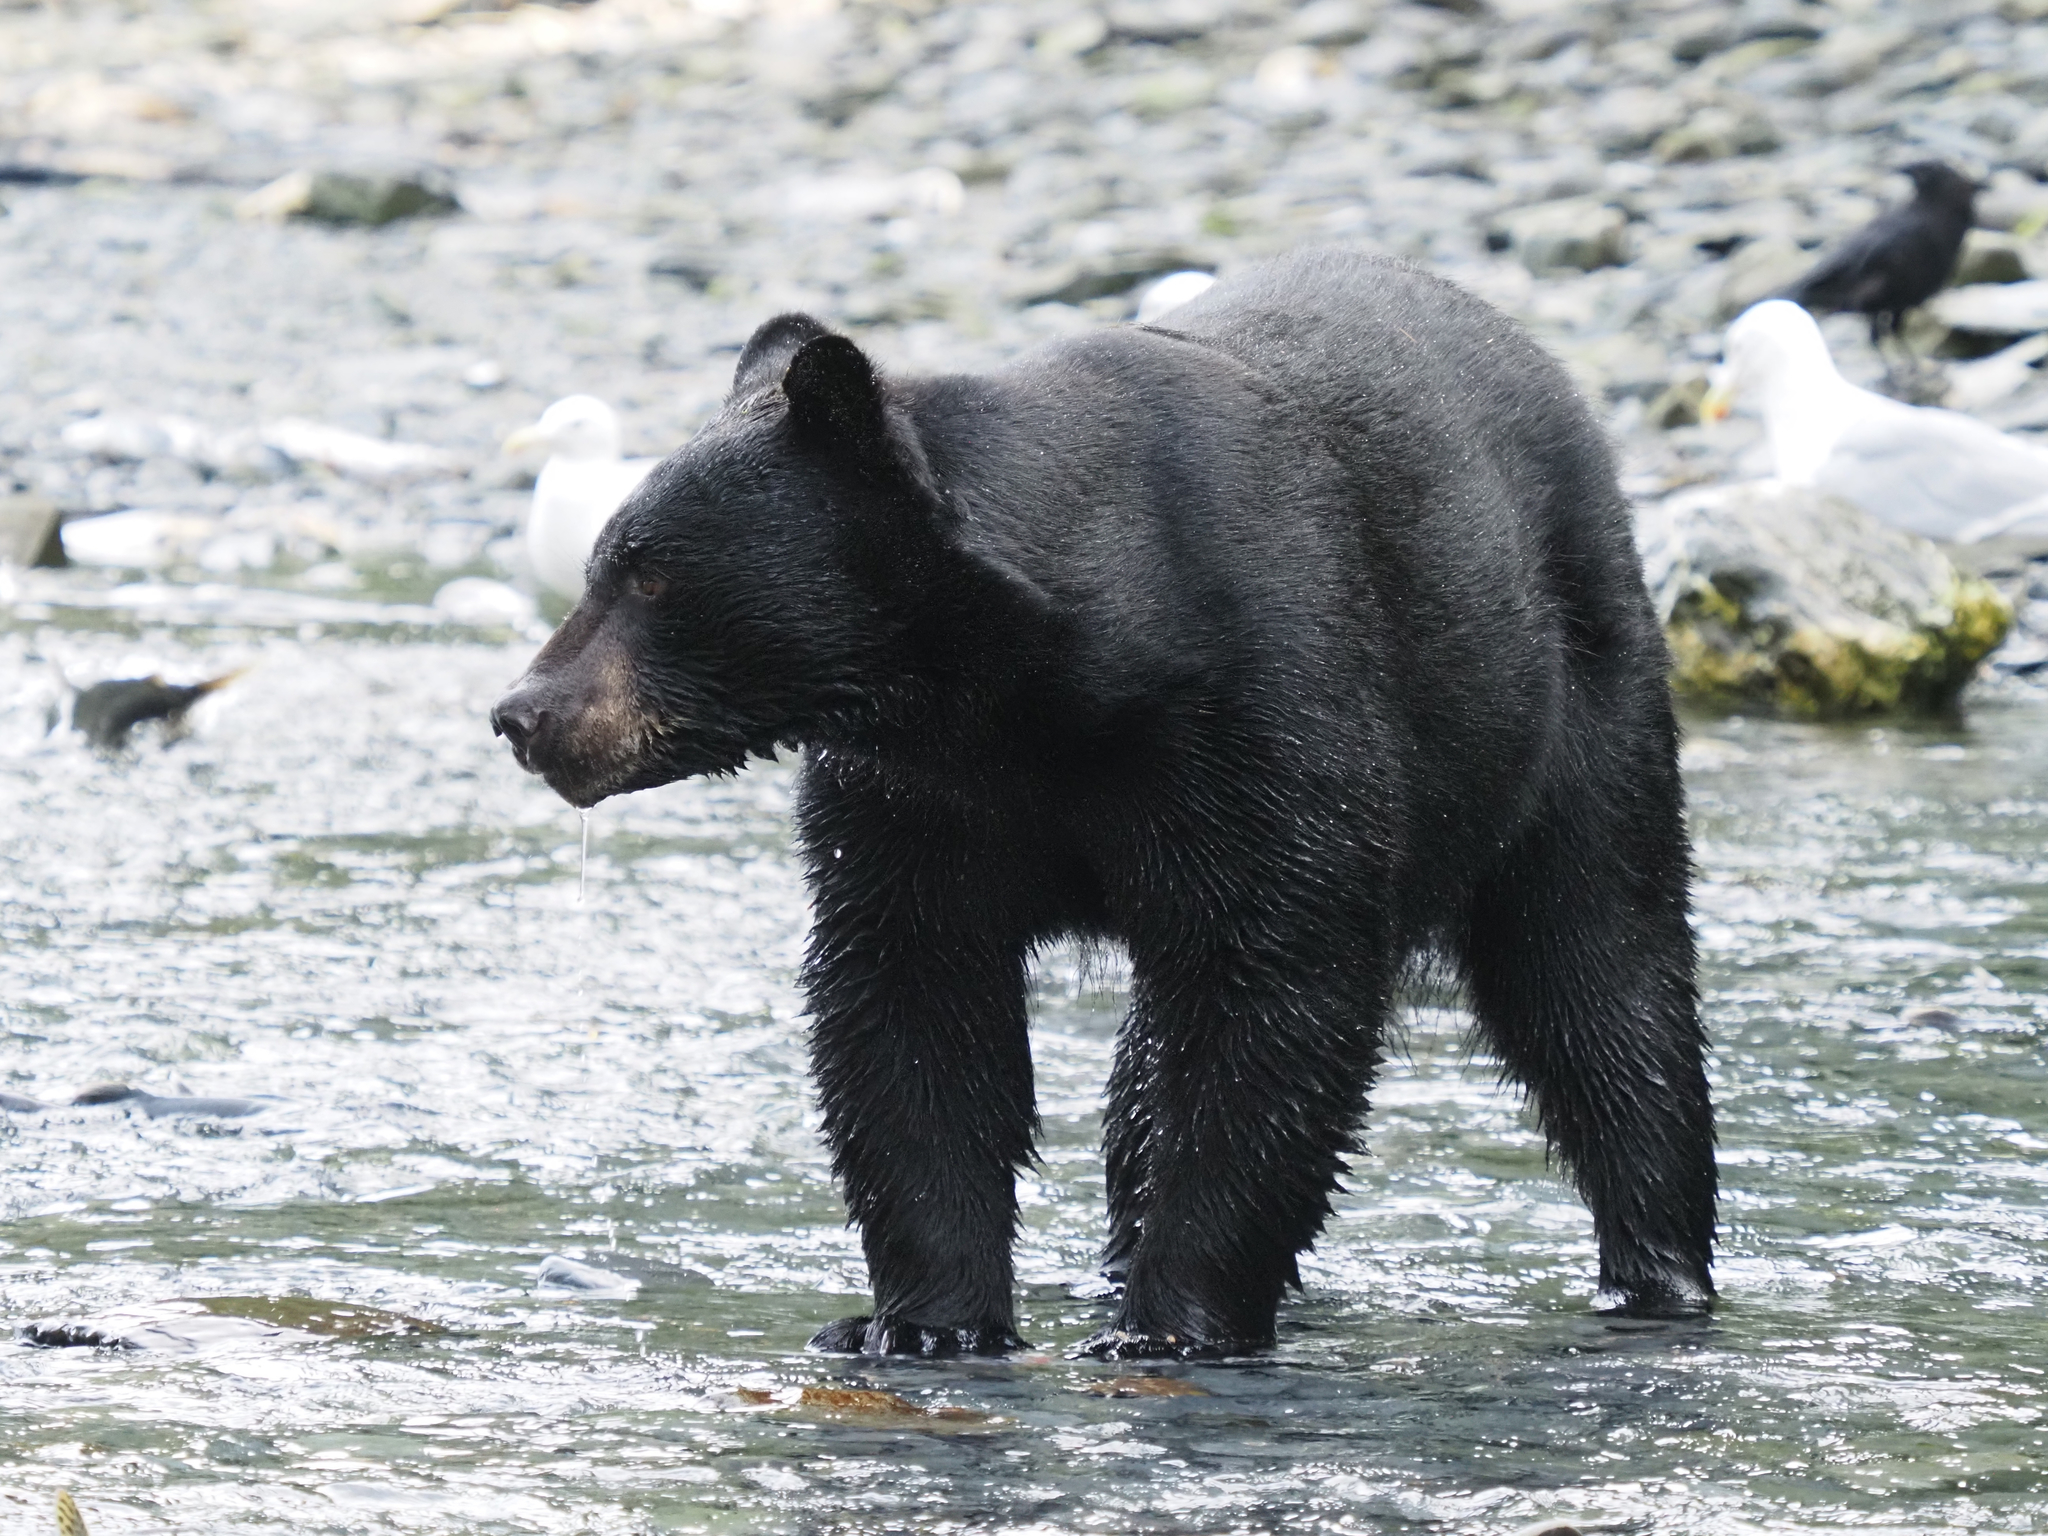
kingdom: Animalia
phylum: Chordata
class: Mammalia
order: Carnivora
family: Ursidae
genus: Ursus
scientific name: Ursus americanus
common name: American black bear
